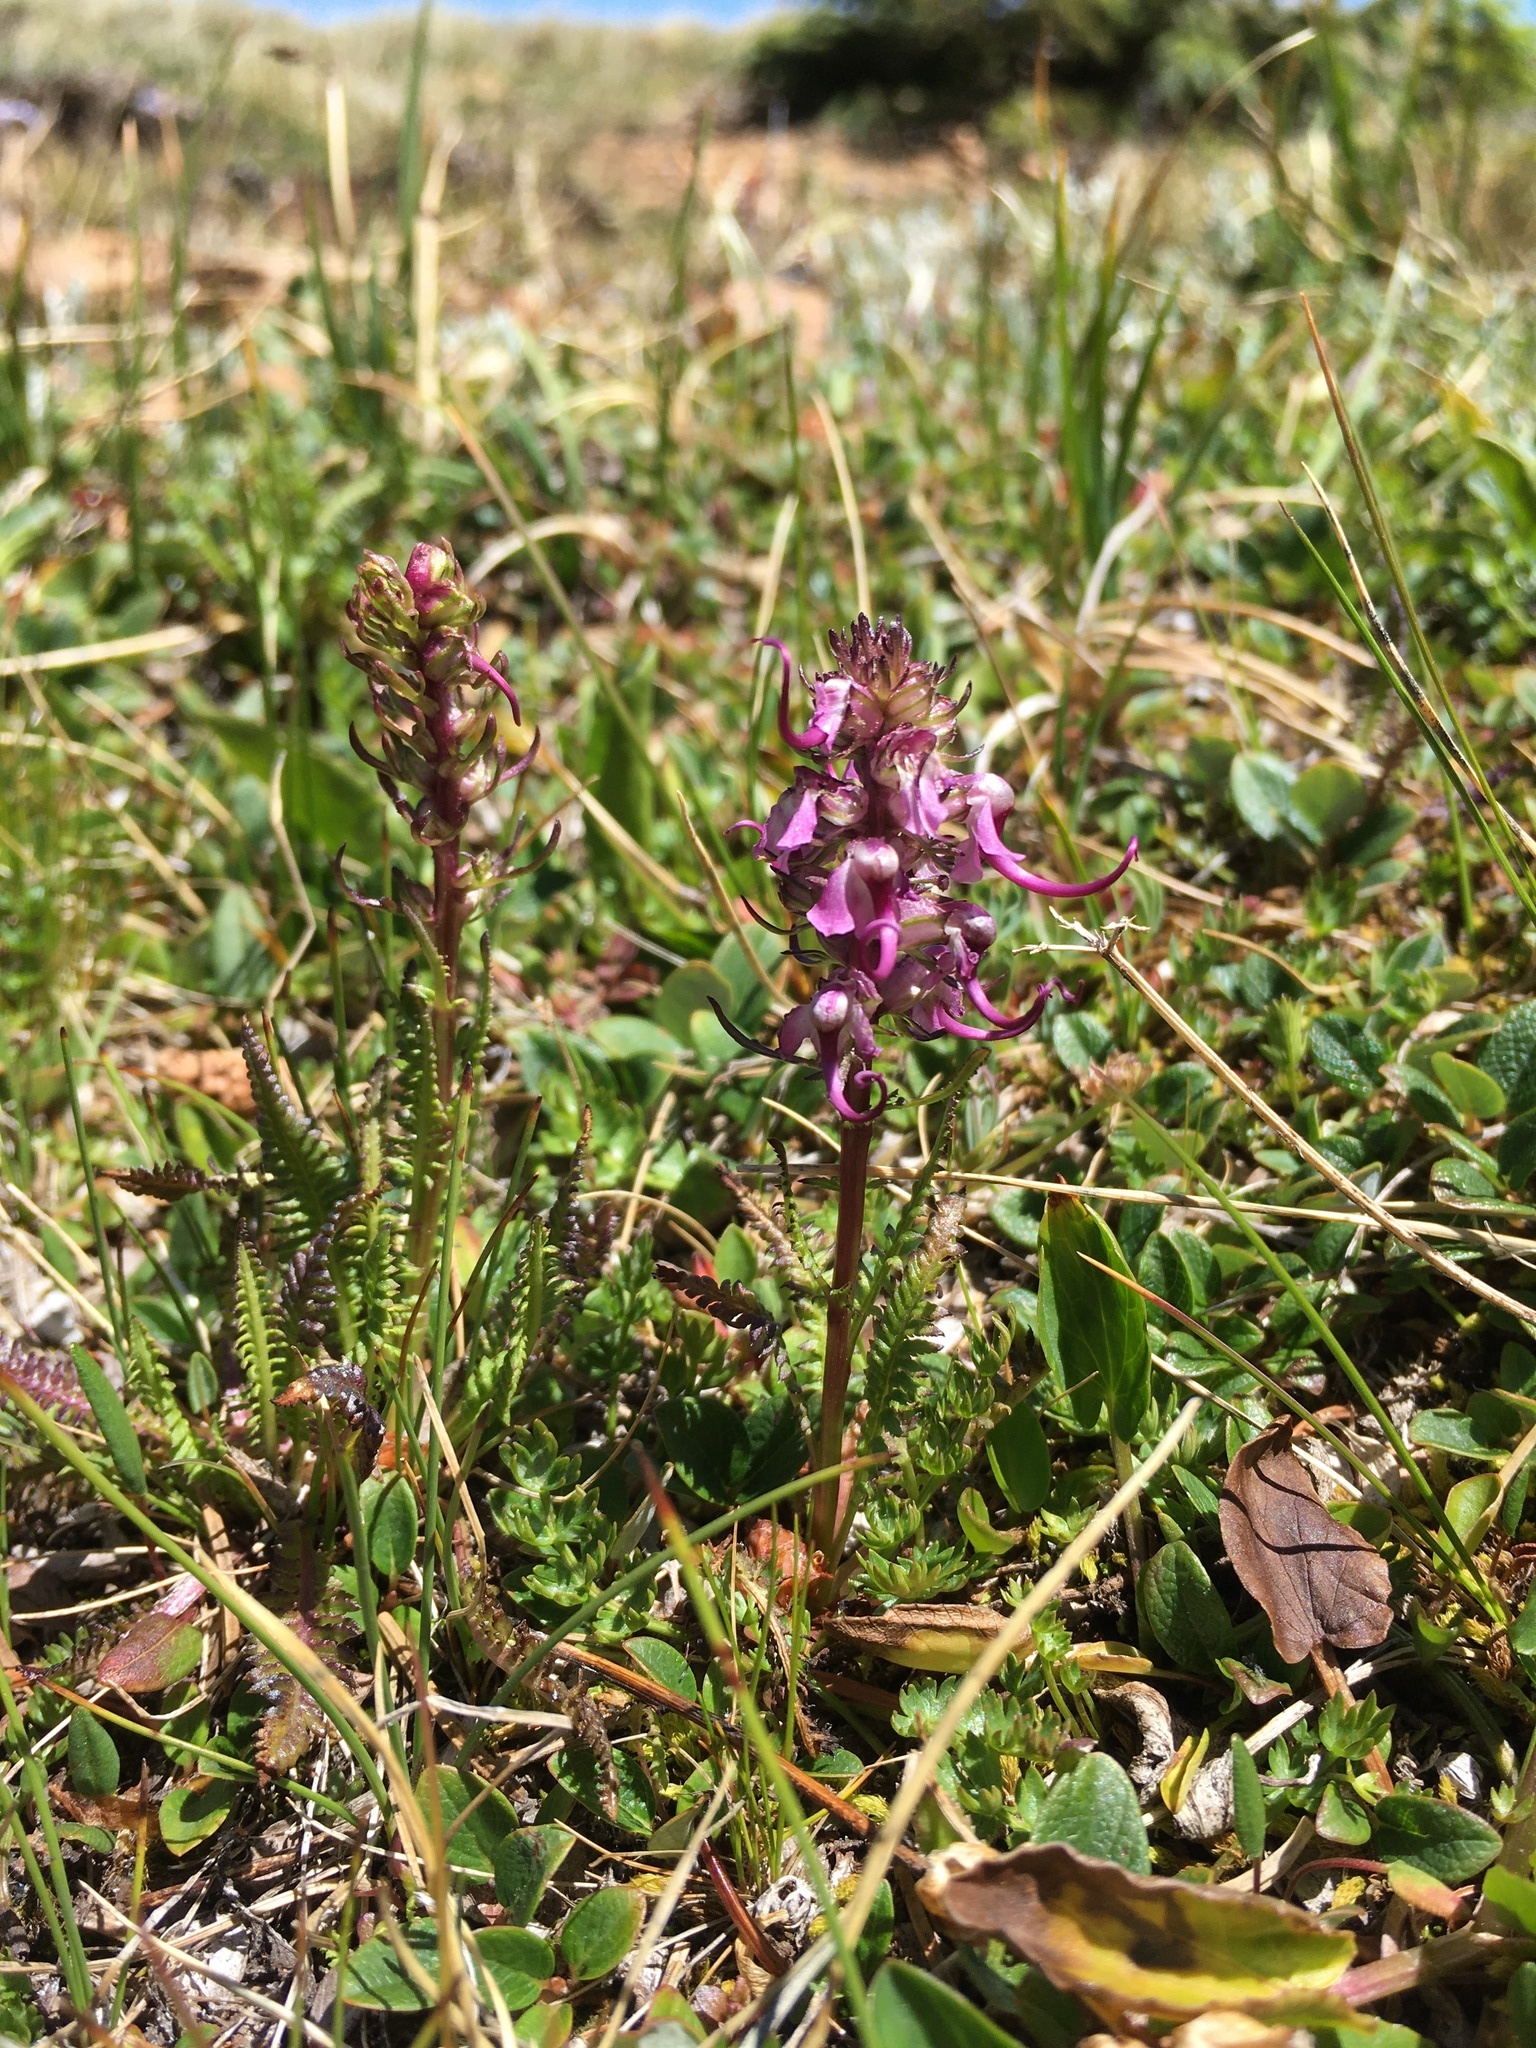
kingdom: Plantae
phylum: Tracheophyta
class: Magnoliopsida
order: Lamiales
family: Orobanchaceae
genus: Pedicularis
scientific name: Pedicularis groenlandica
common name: Elephant's-head
